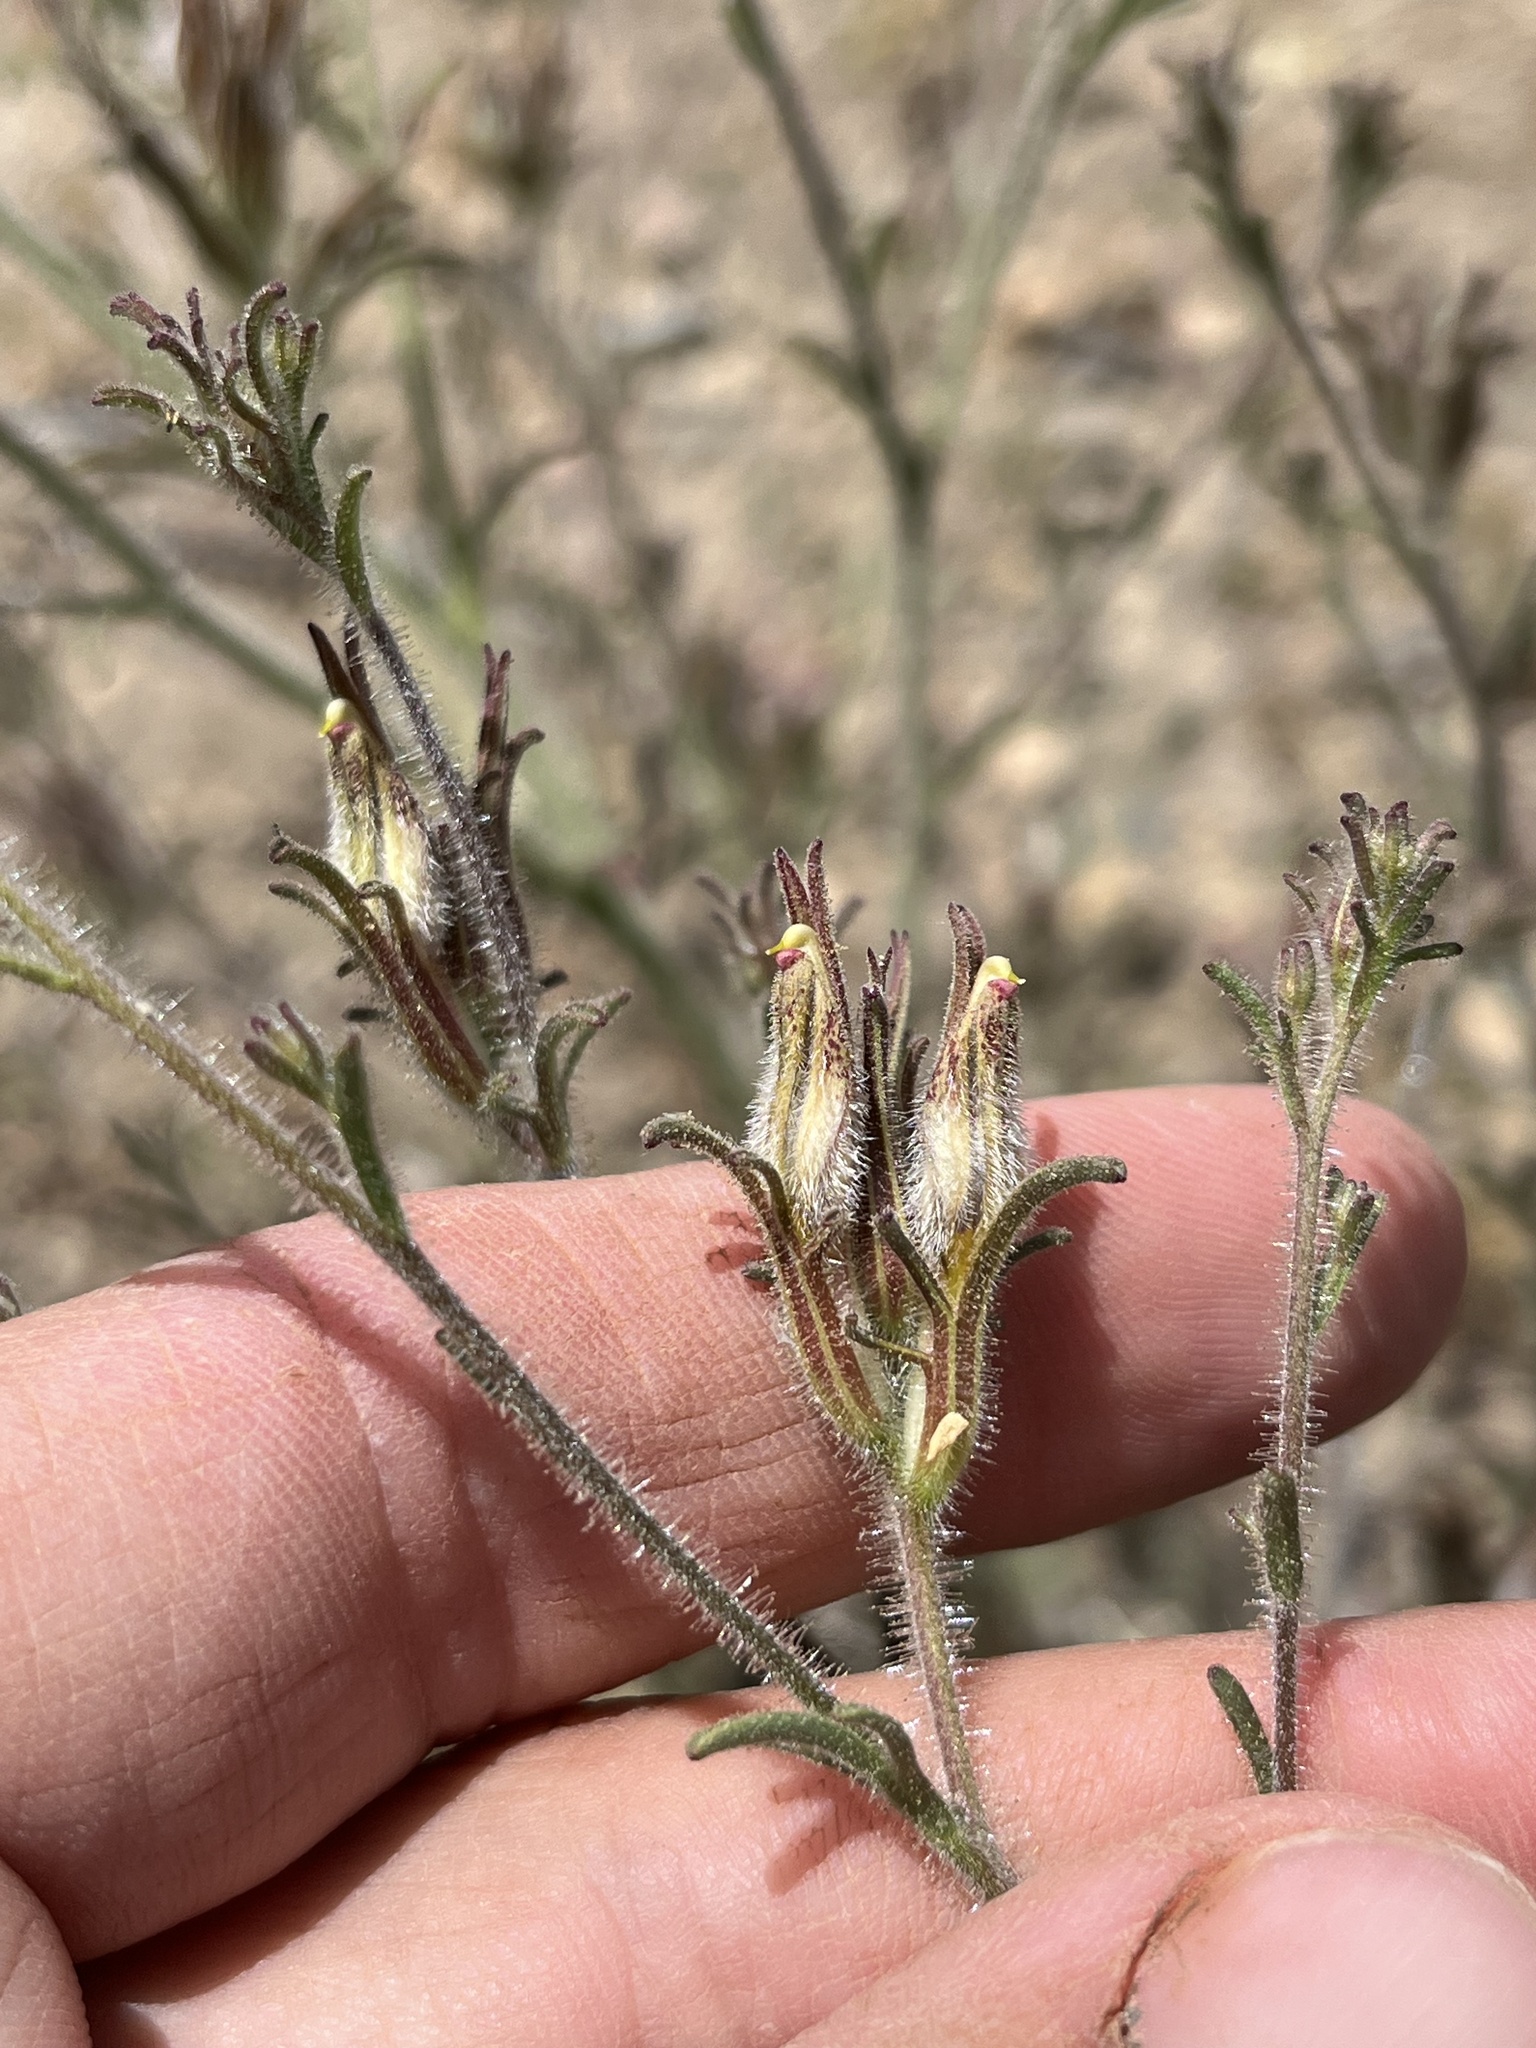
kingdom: Plantae
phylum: Tracheophyta
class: Magnoliopsida
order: Lamiales
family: Orobanchaceae
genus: Cordylanthus
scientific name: Cordylanthus kingii
